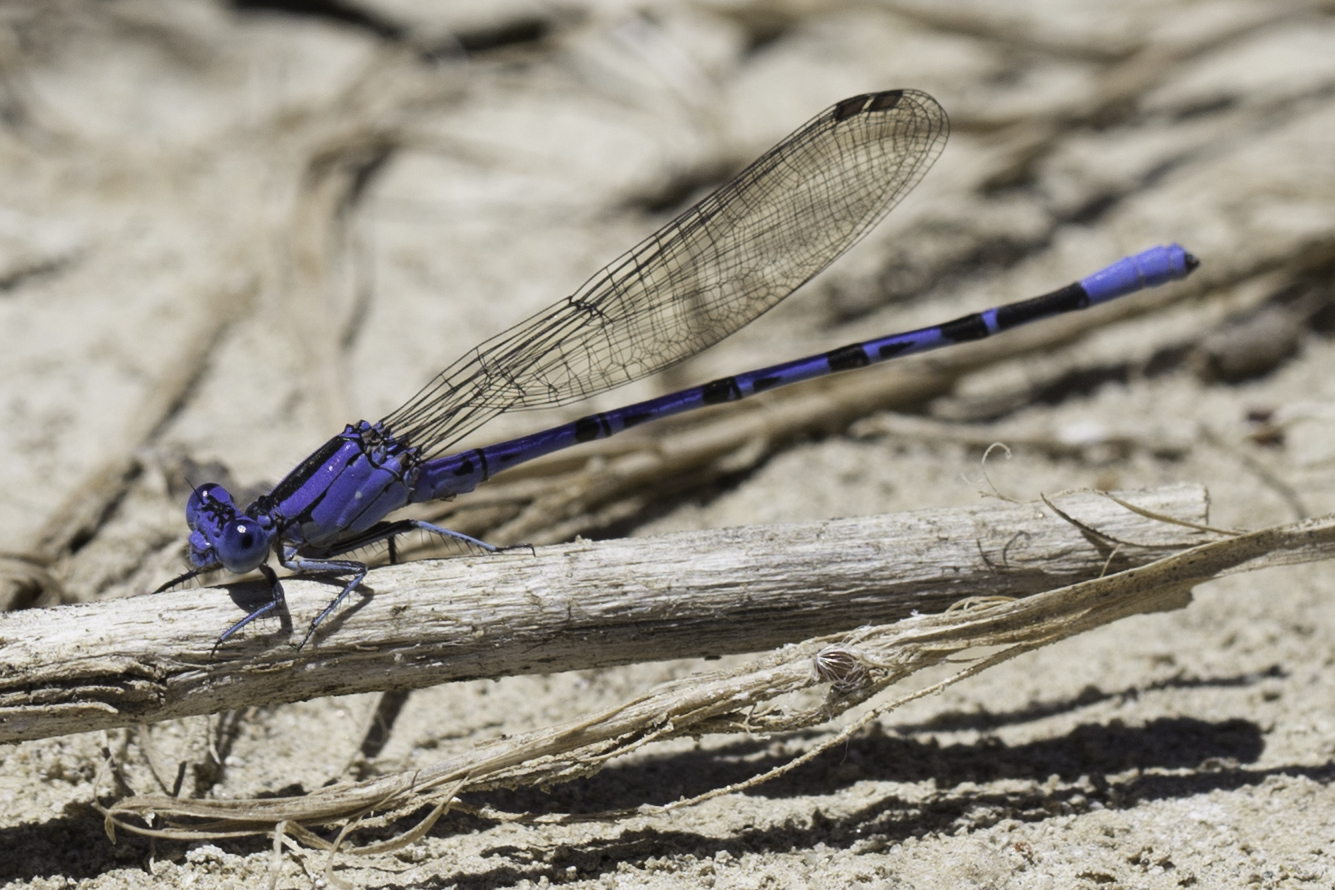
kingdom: Animalia
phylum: Arthropoda
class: Insecta
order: Odonata
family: Coenagrionidae
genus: Argia
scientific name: Argia vivida
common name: Vivid dancer
